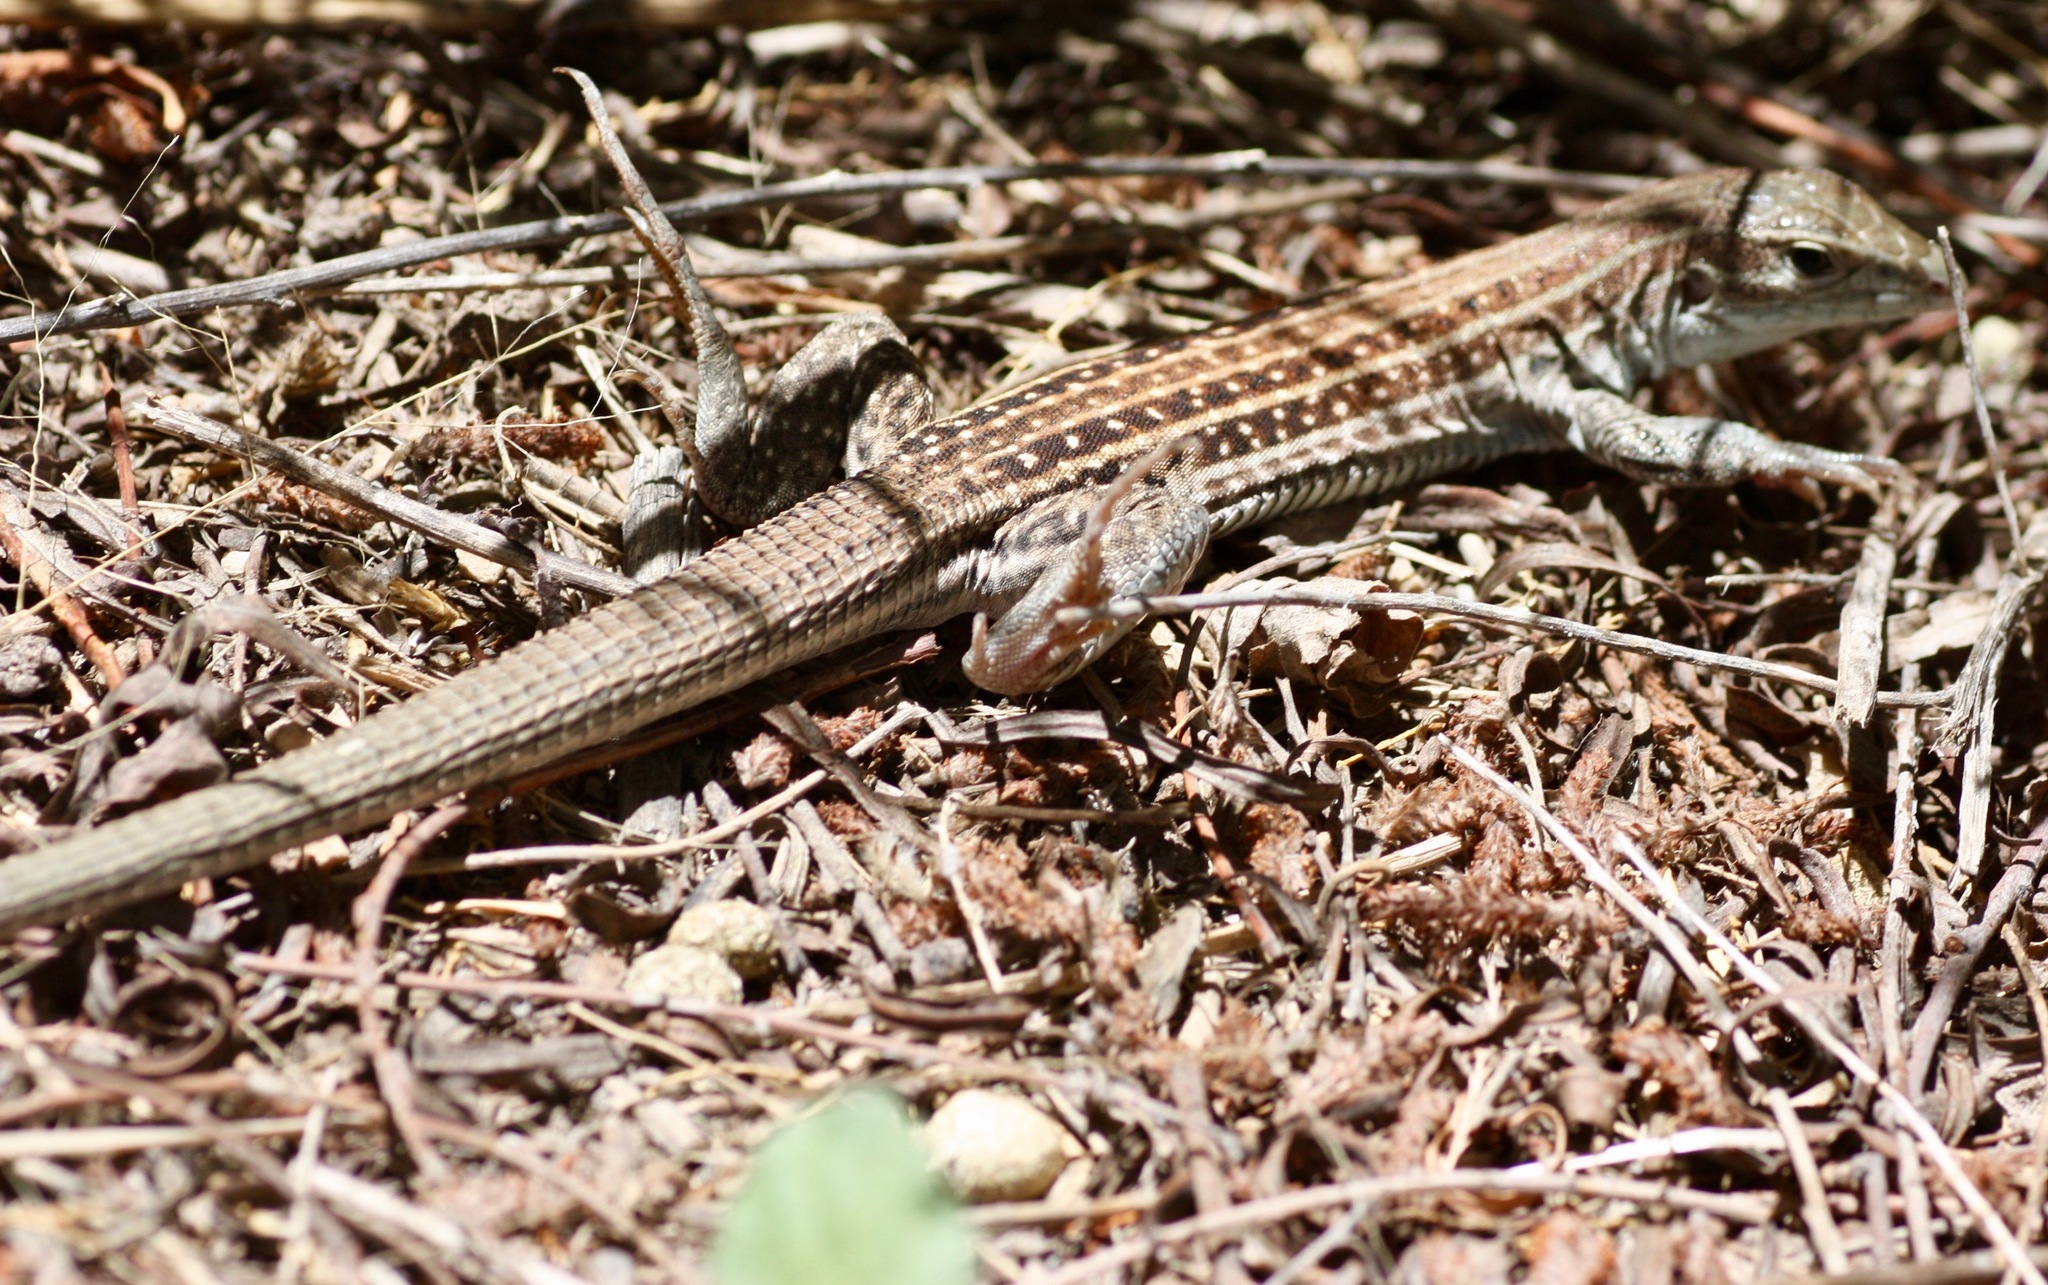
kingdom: Animalia
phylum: Chordata
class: Squamata
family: Teiidae
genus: Aspidoscelis
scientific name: Aspidoscelis exsanguis
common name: Chihuahuan spotted whiptail
